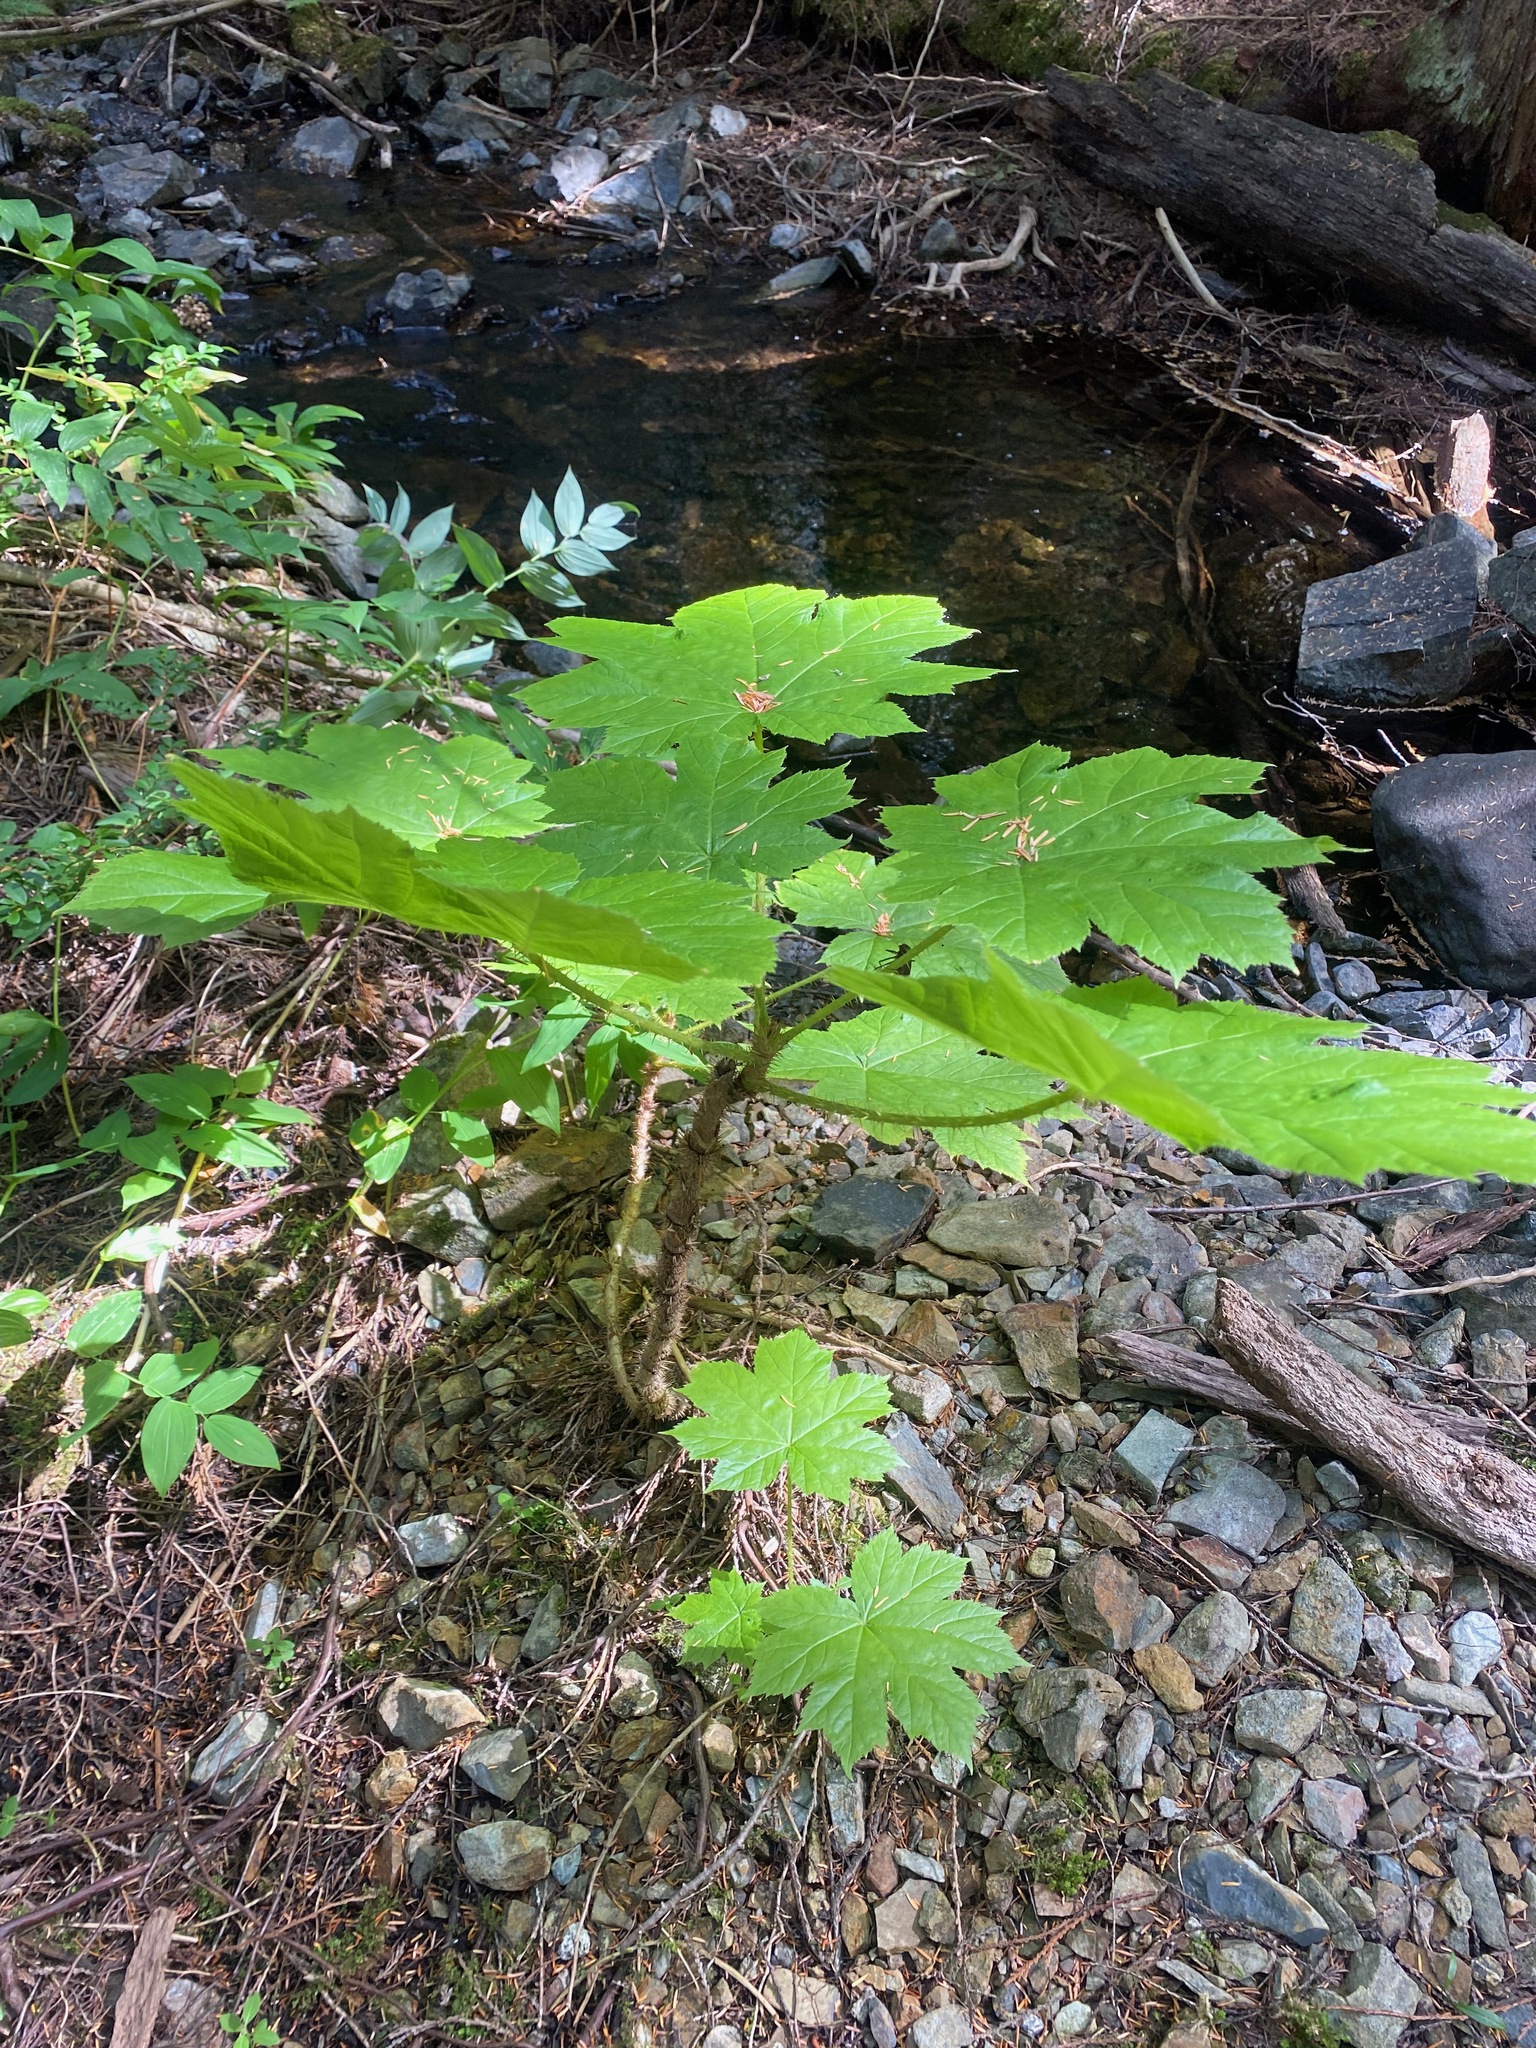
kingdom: Plantae
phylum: Tracheophyta
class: Magnoliopsida
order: Apiales
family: Araliaceae
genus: Oplopanax
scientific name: Oplopanax horridus
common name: Devil's walking-stick
